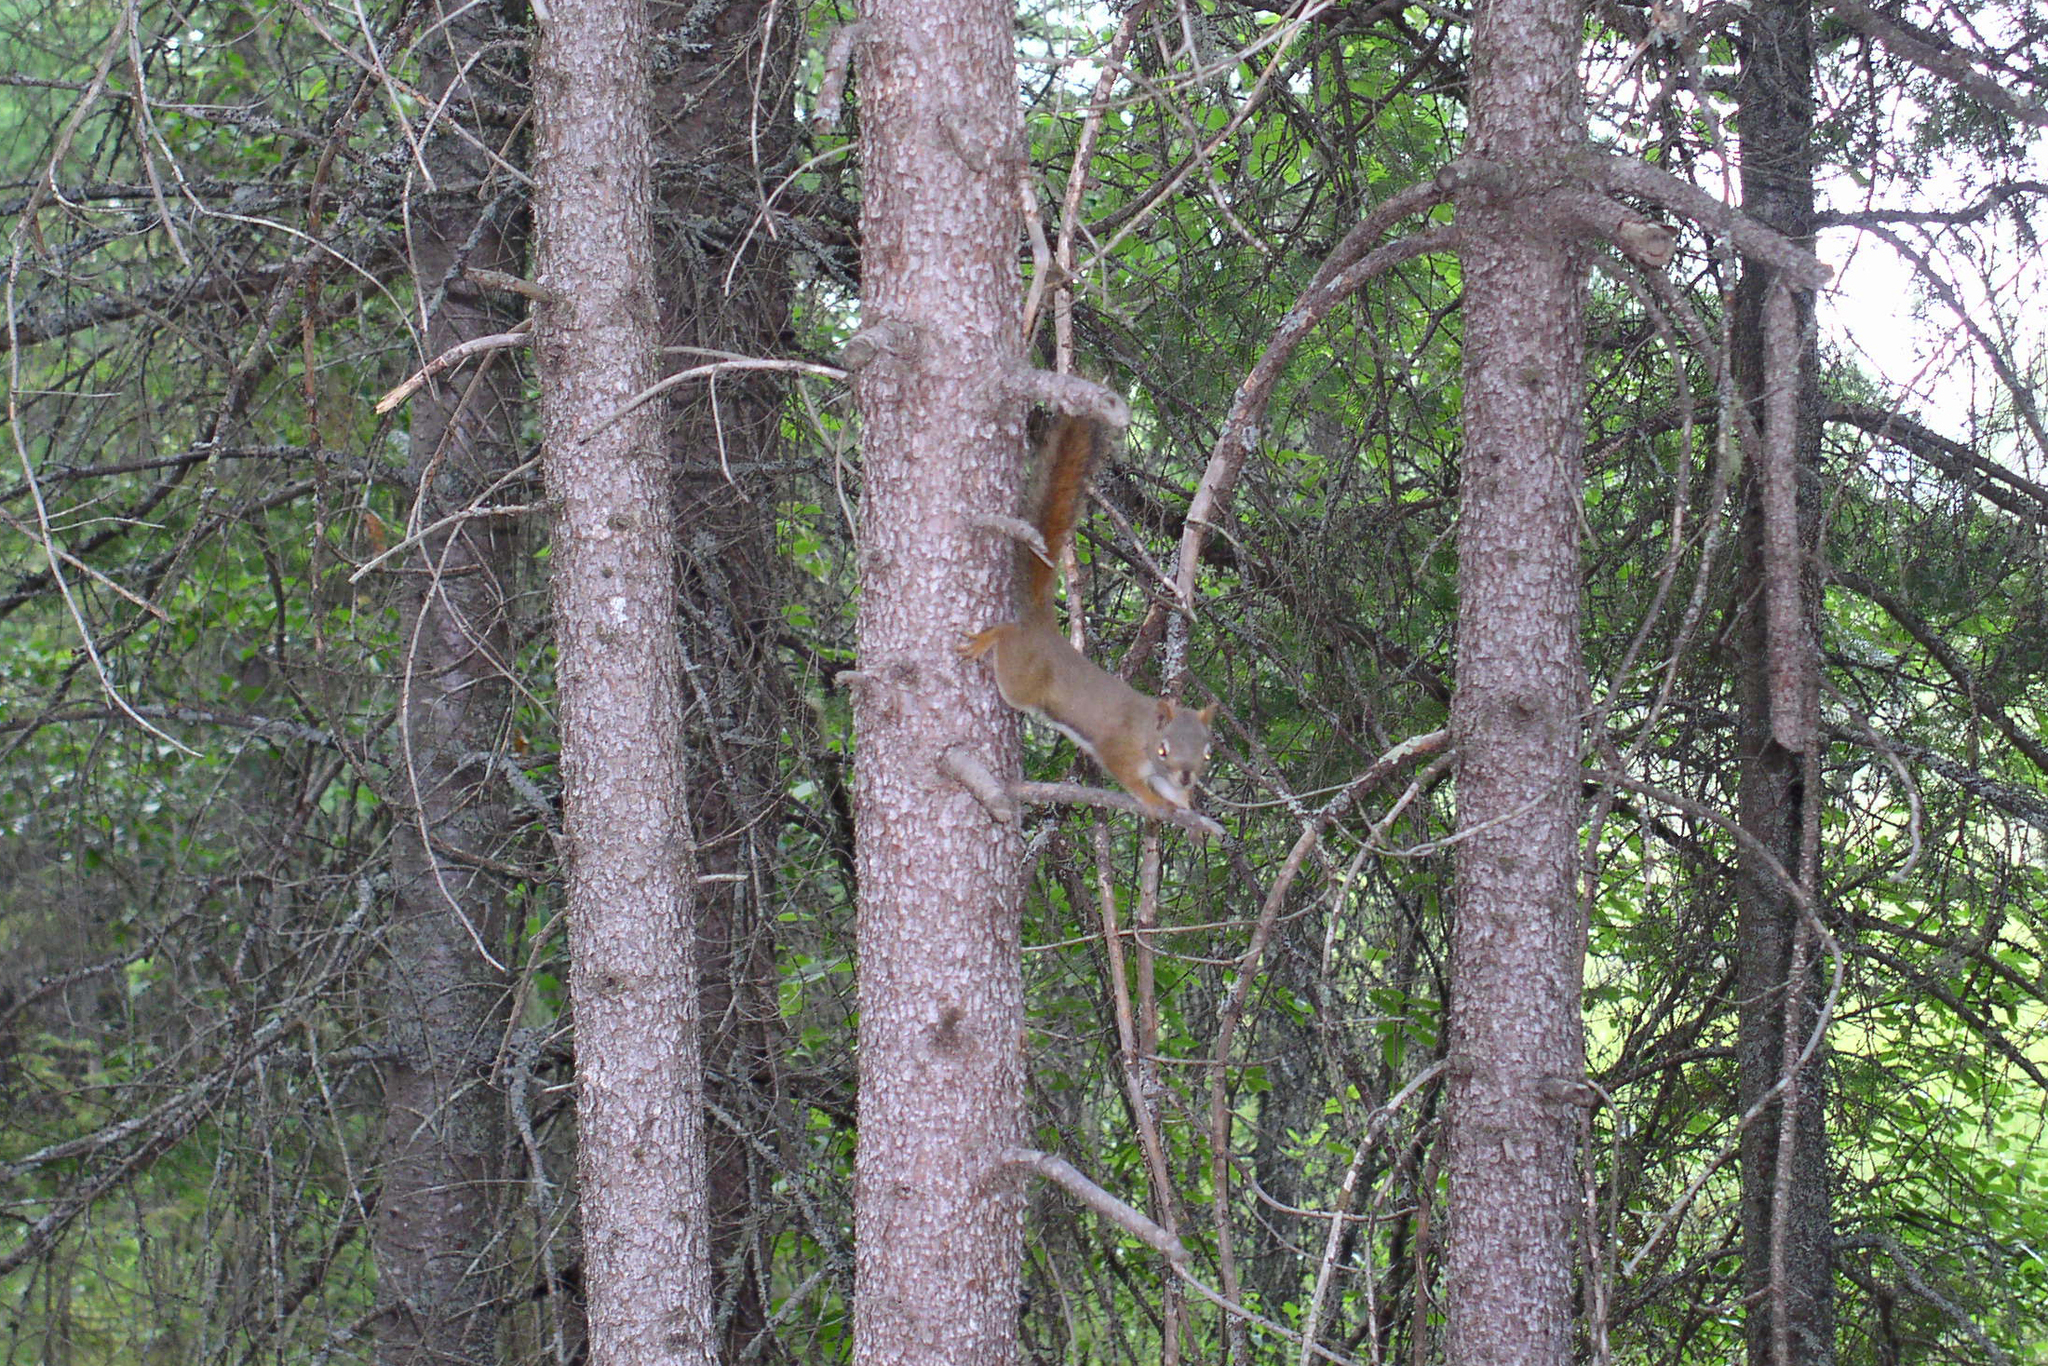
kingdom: Animalia
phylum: Chordata
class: Mammalia
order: Rodentia
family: Sciuridae
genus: Tamiasciurus
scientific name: Tamiasciurus hudsonicus
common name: Red squirrel
